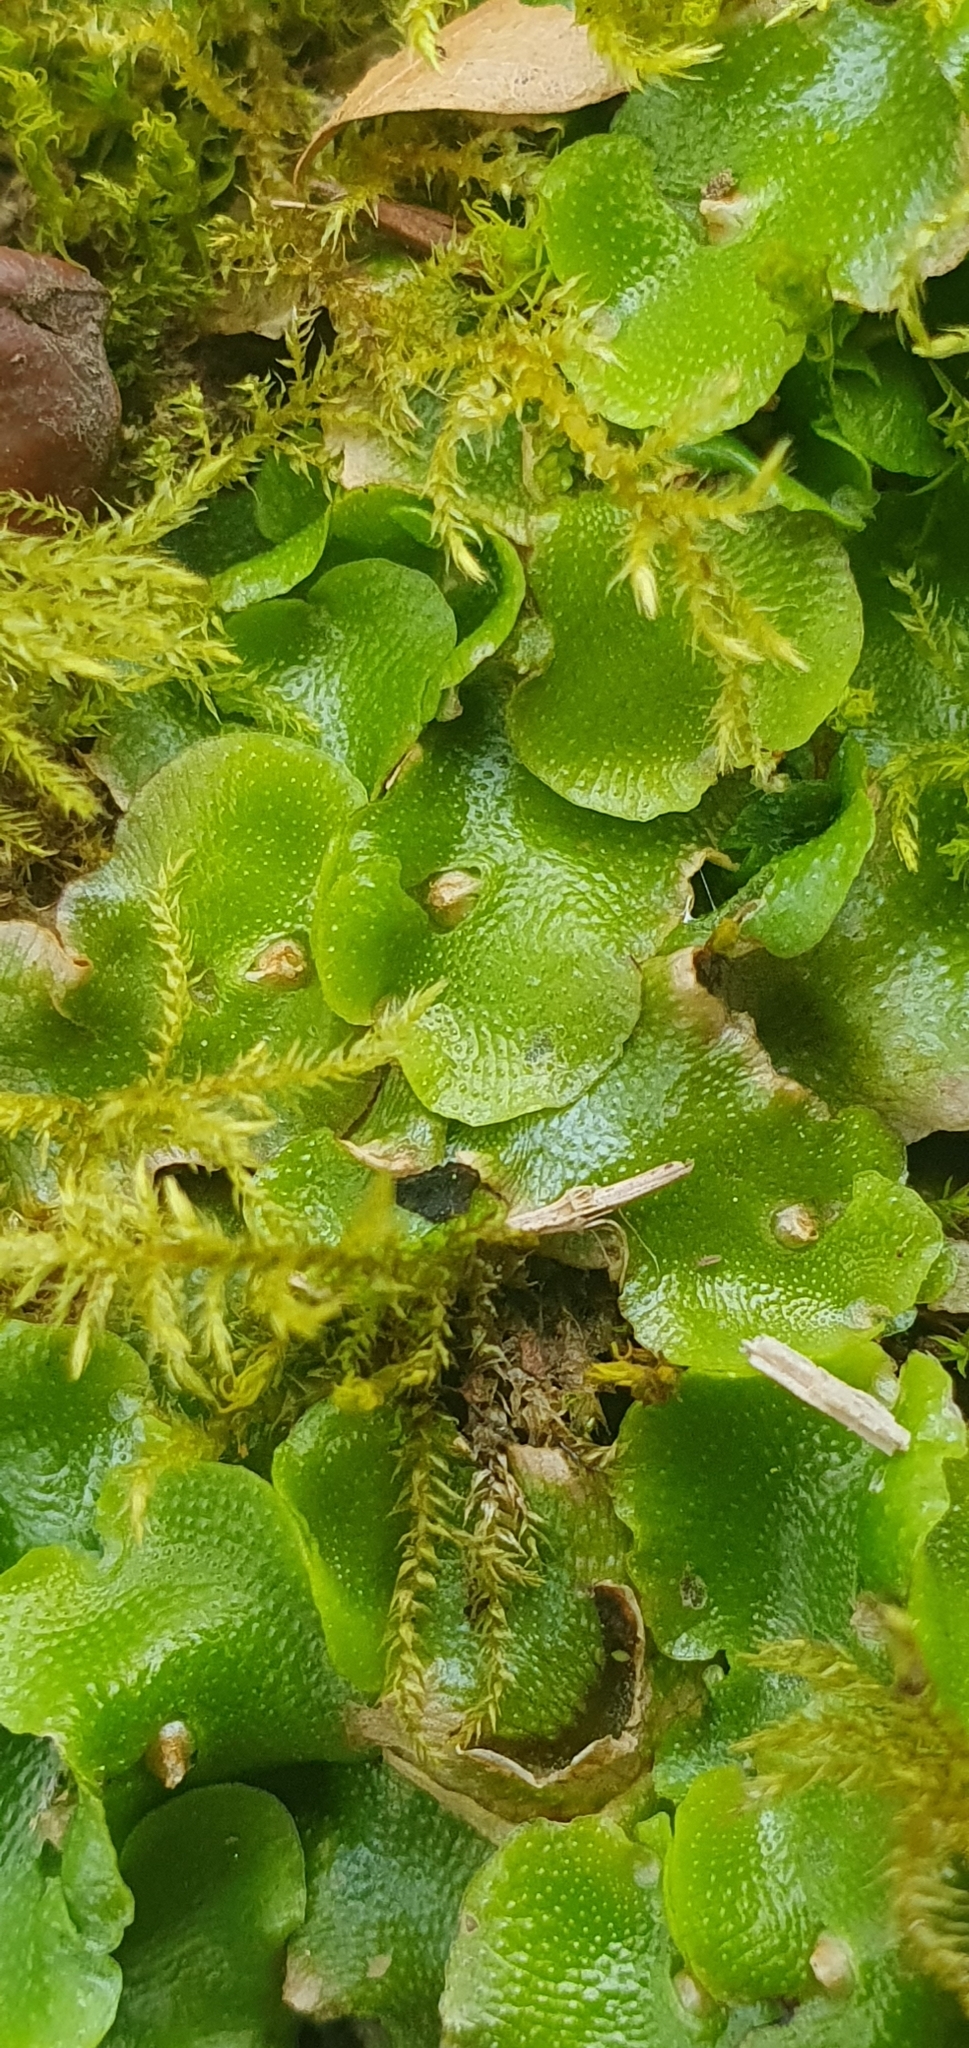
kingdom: Plantae
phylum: Marchantiophyta
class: Marchantiopsida
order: Lunulariales
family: Lunulariaceae
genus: Lunularia
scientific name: Lunularia cruciata
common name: Crescent-cup liverwort
